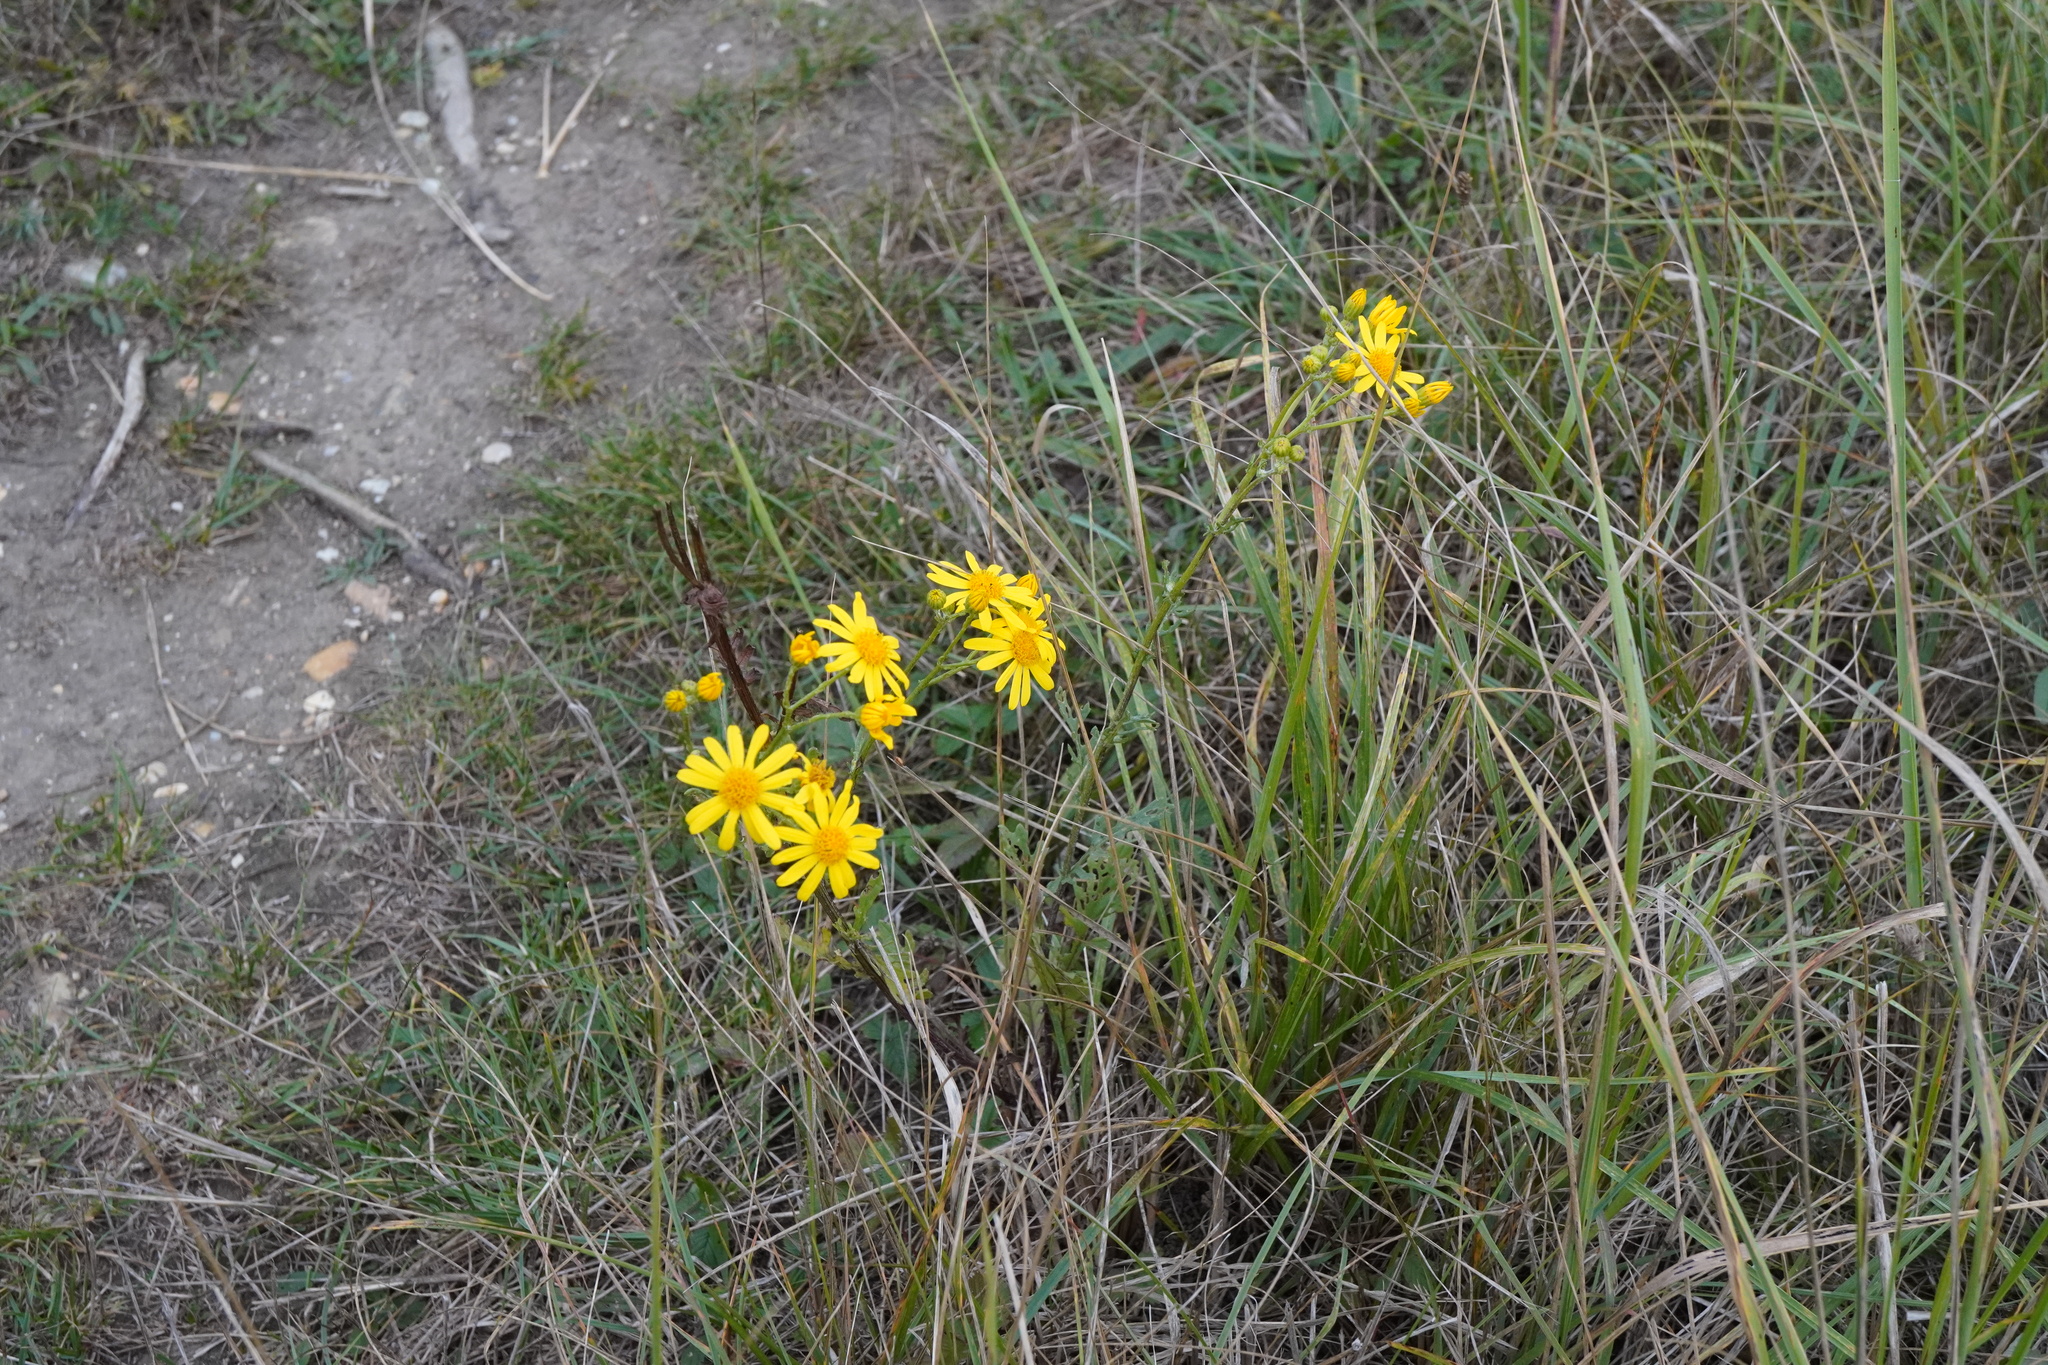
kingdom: Plantae
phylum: Tracheophyta
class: Magnoliopsida
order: Asterales
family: Asteraceae
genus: Jacobaea
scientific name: Jacobaea vulgaris
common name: Stinking willie
